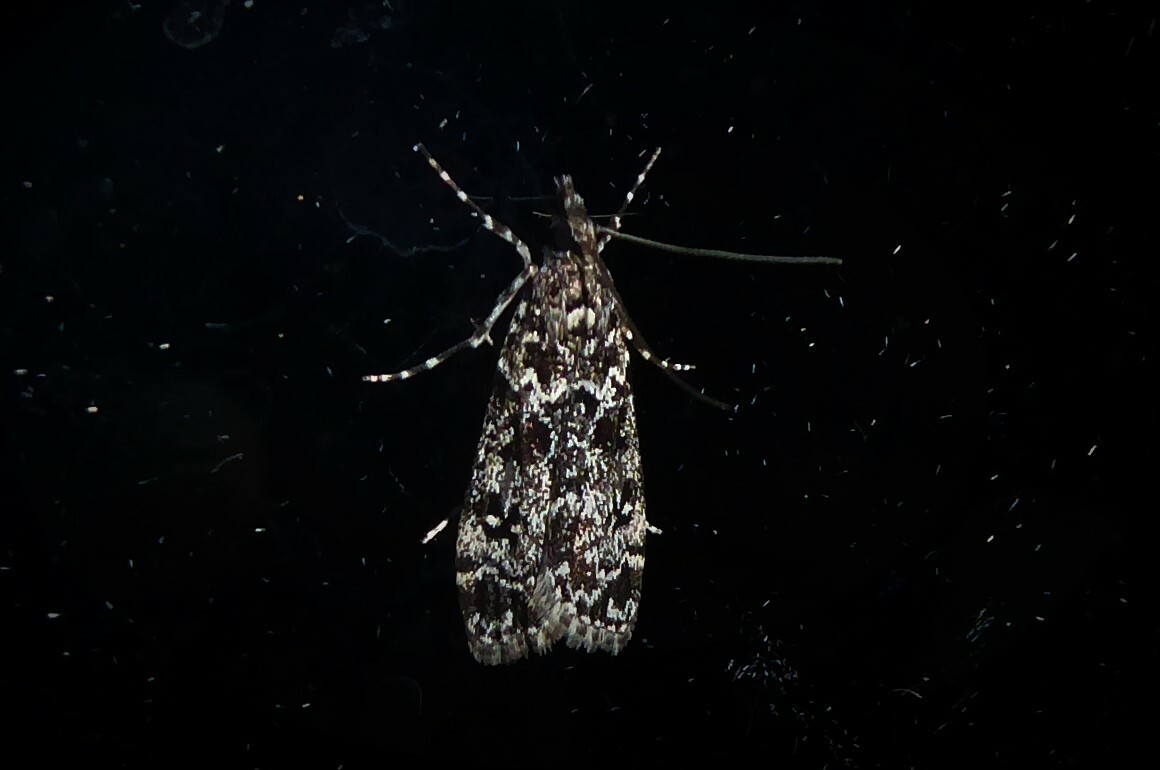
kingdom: Animalia
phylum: Arthropoda
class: Insecta
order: Lepidoptera
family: Crambidae
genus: Eudonia
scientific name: Eudonia philerga
